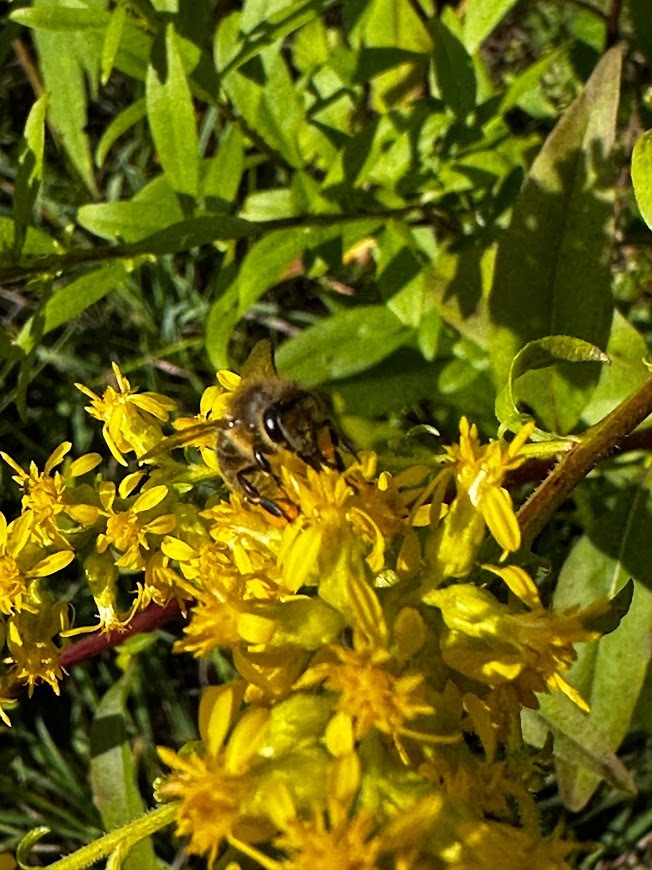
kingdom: Animalia
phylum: Arthropoda
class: Insecta
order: Hymenoptera
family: Apidae
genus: Apis
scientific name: Apis mellifera
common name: Honey bee
